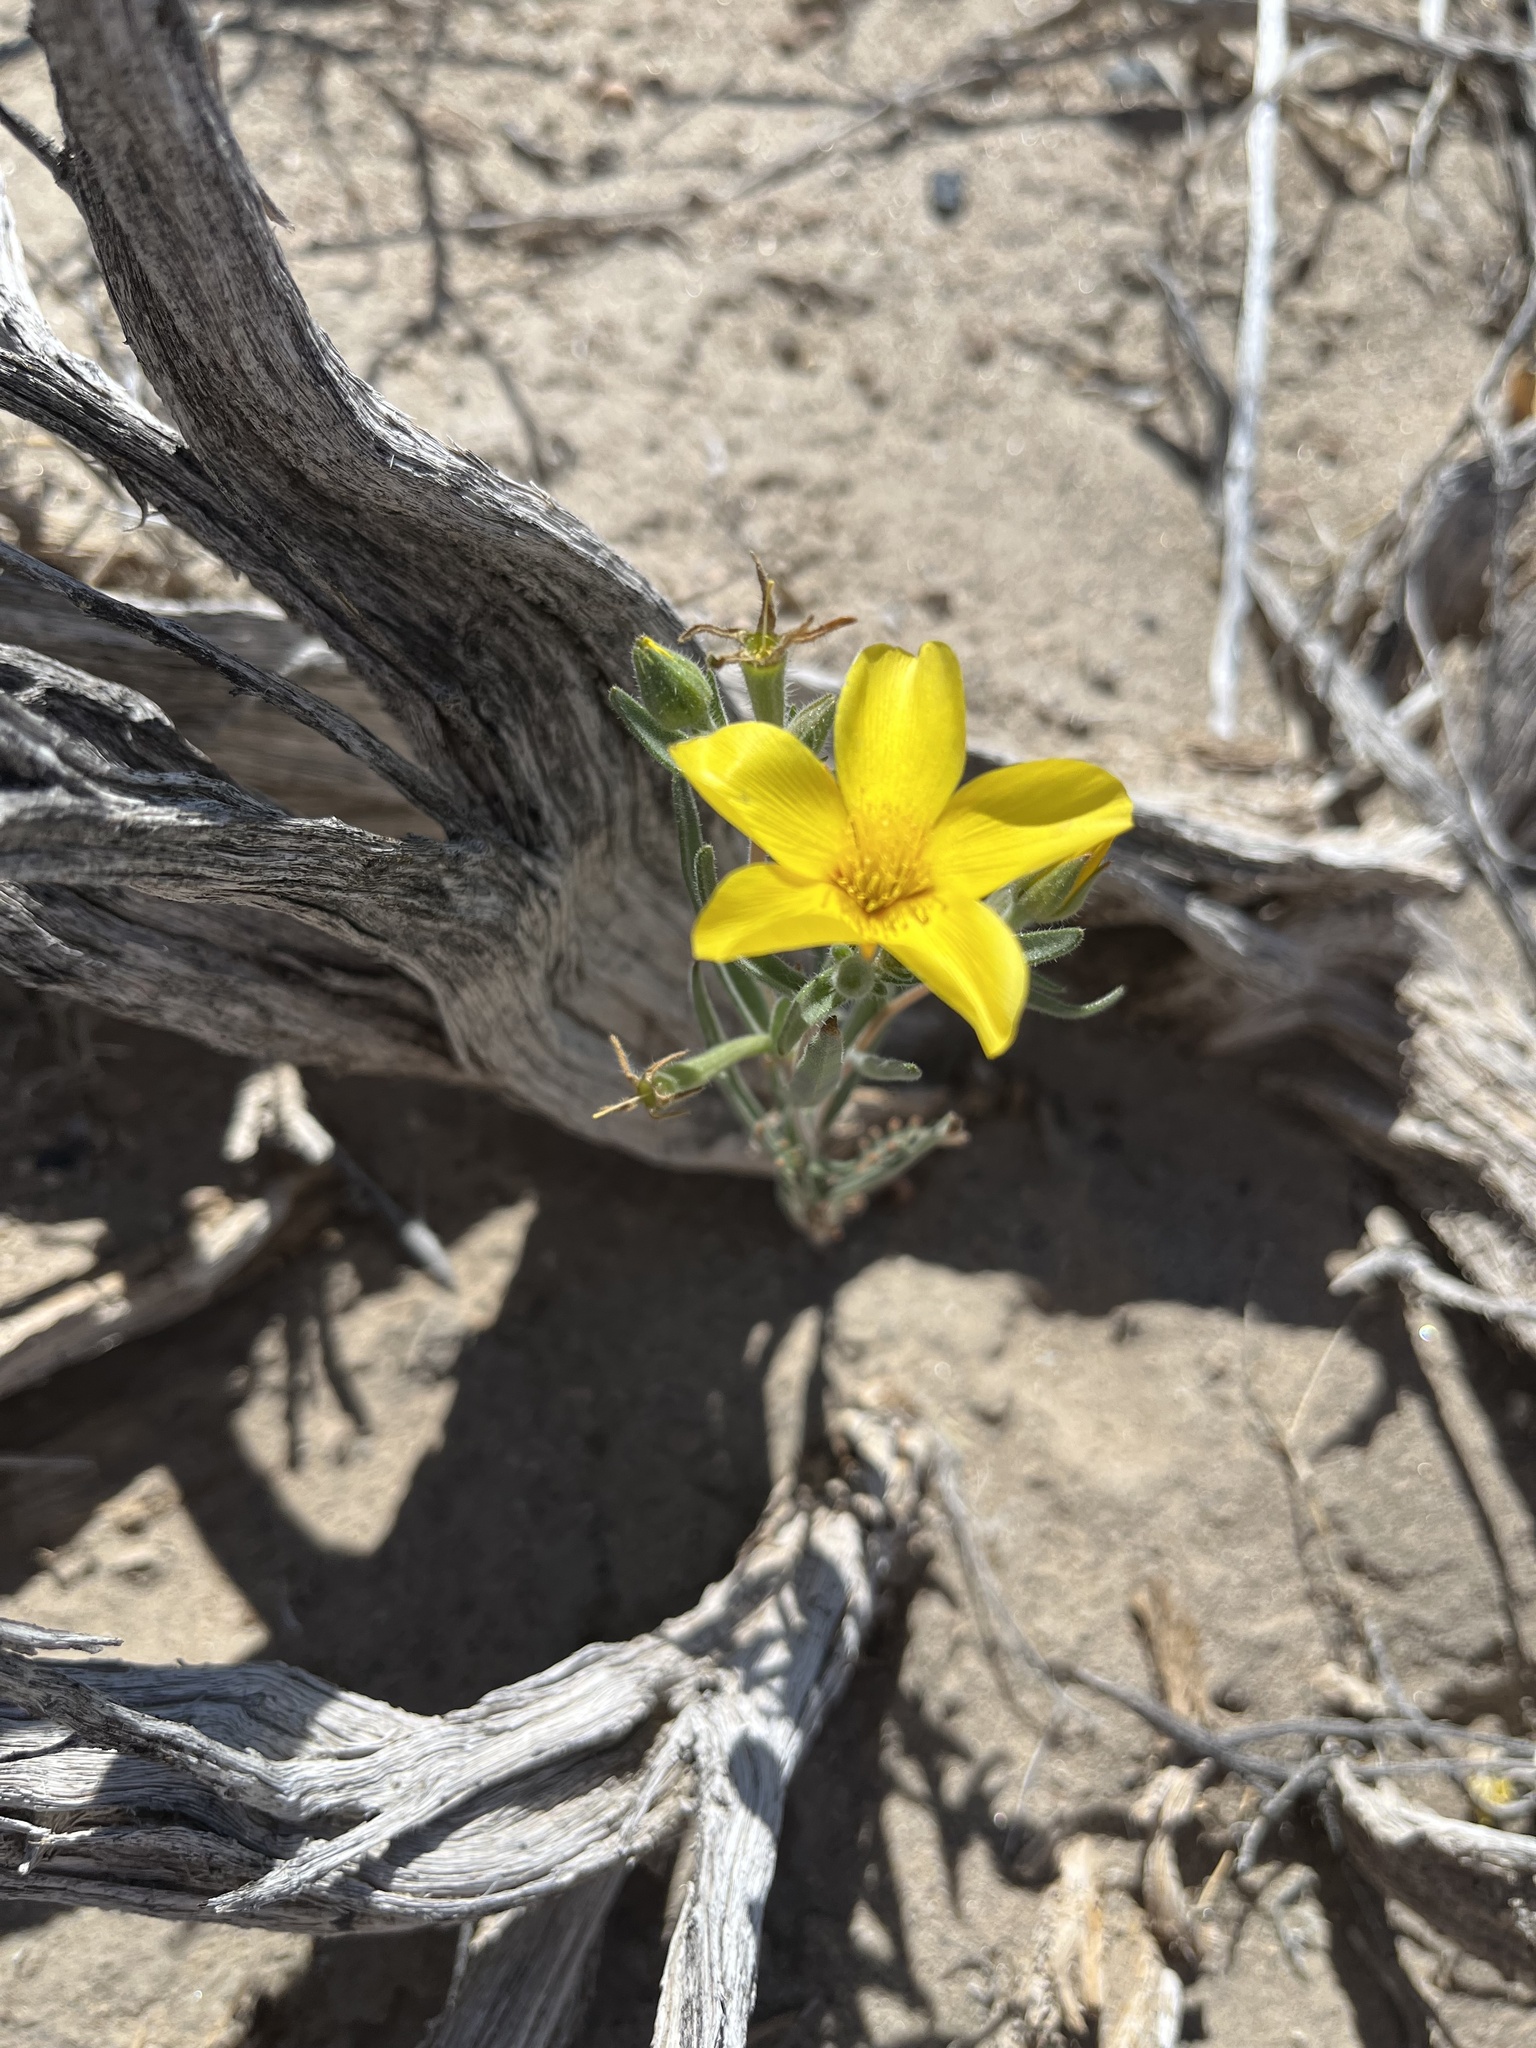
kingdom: Plantae
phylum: Tracheophyta
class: Magnoliopsida
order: Cornales
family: Loasaceae
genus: Mentzelia
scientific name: Mentzelia nitens
